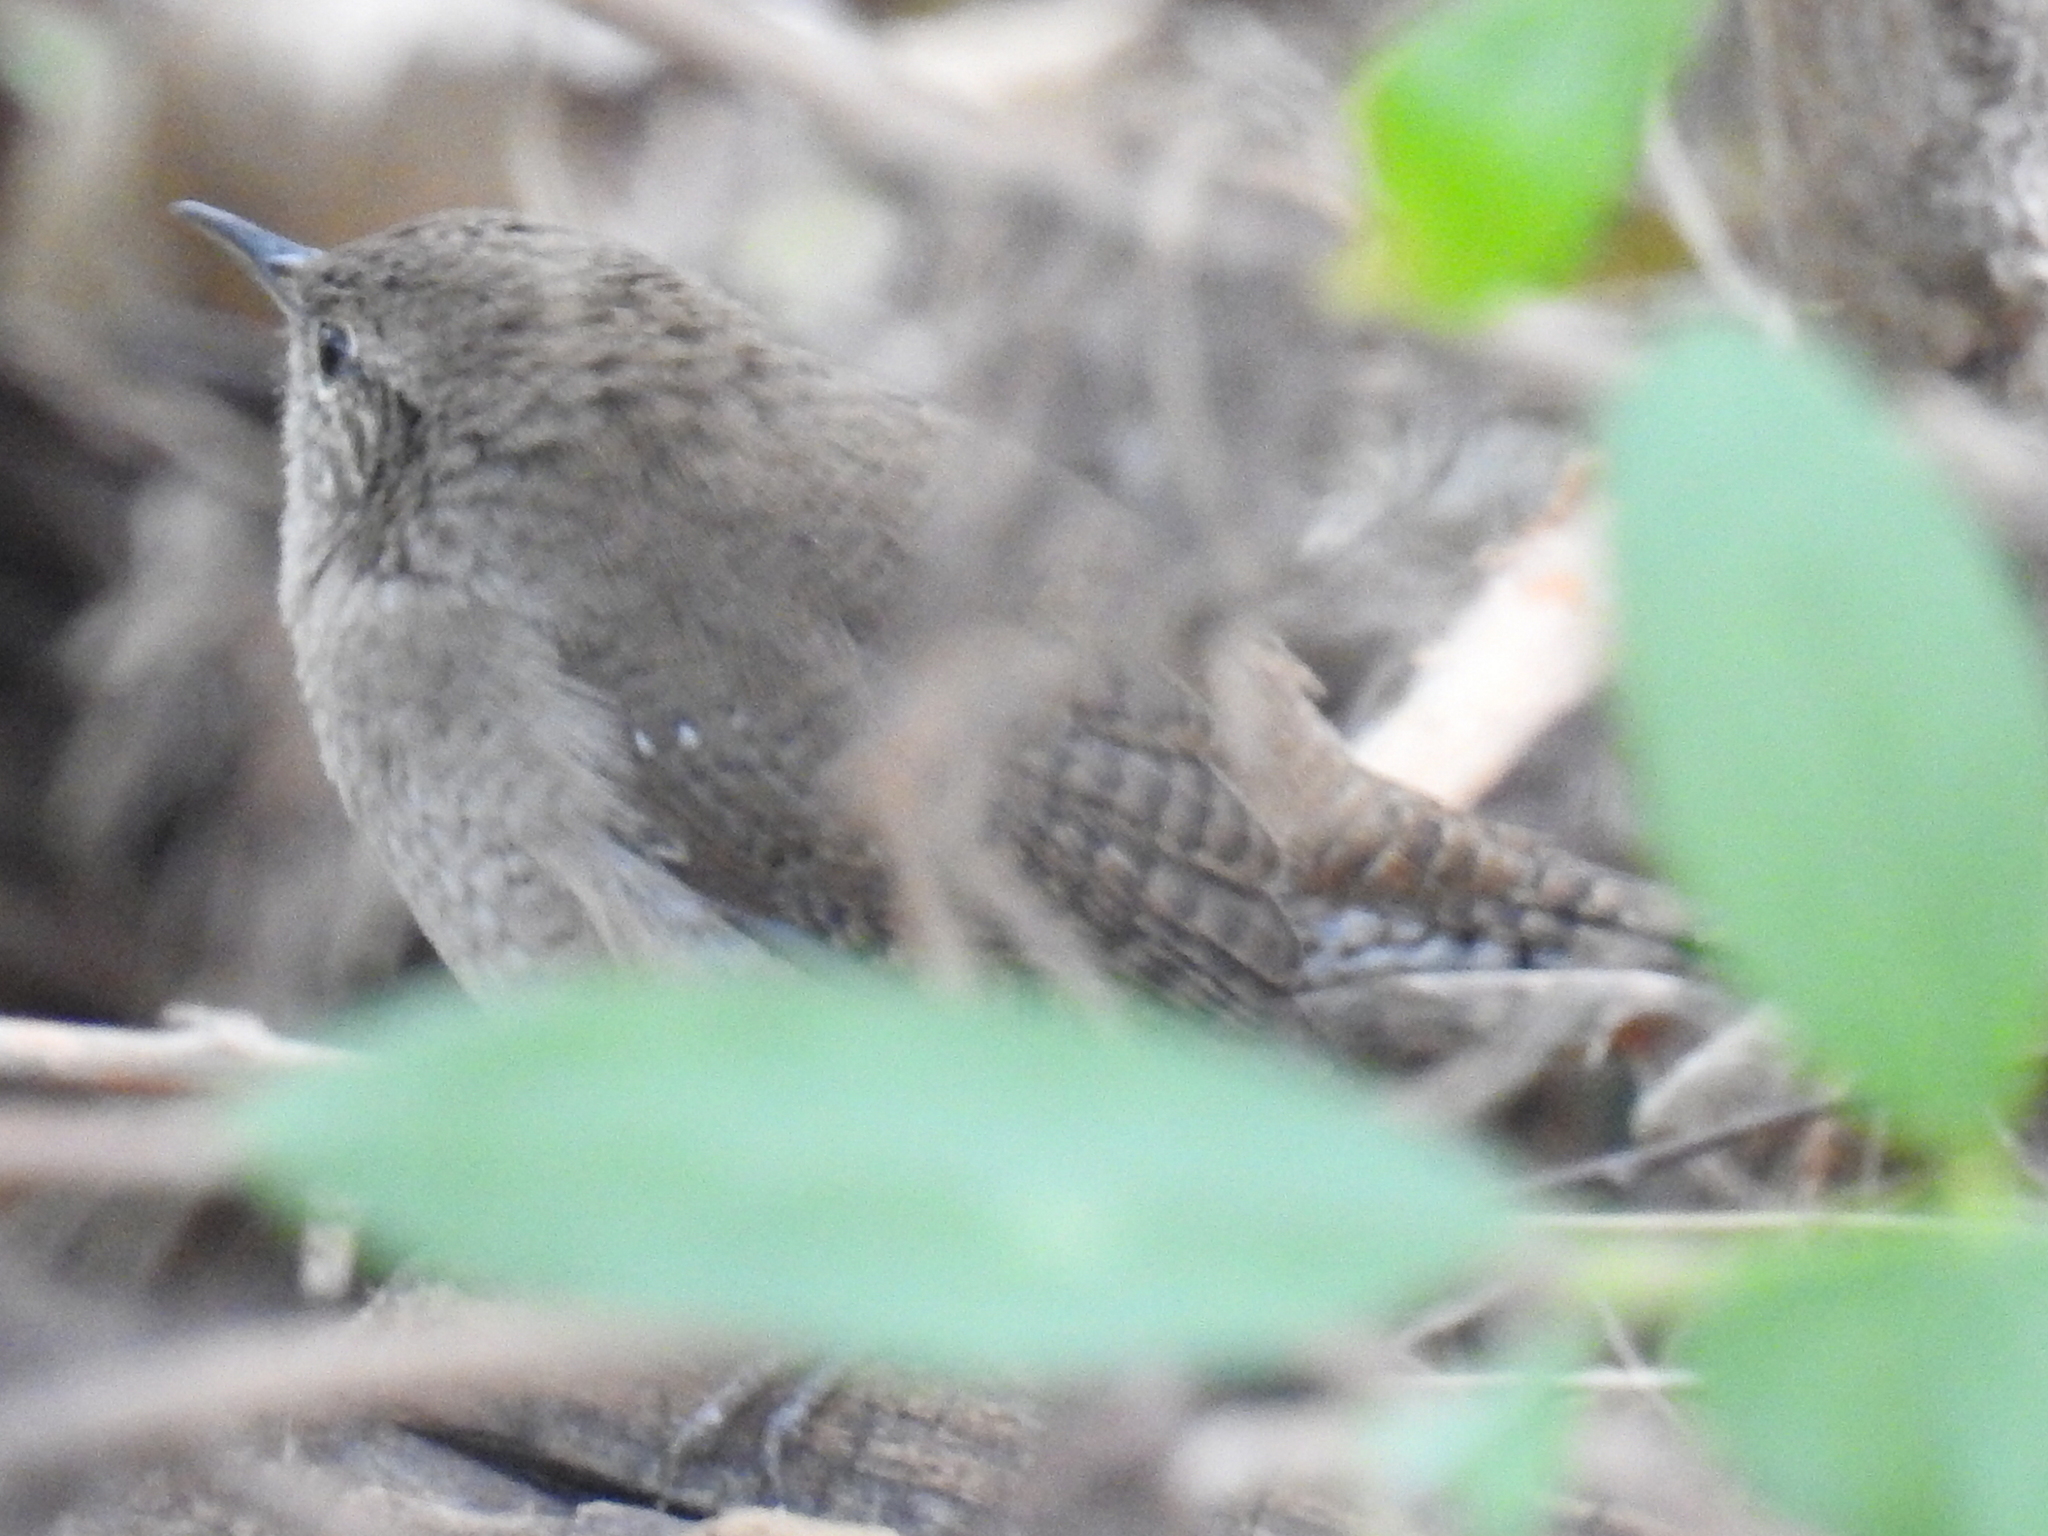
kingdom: Animalia
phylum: Chordata
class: Aves
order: Passeriformes
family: Troglodytidae
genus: Troglodytes
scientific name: Troglodytes aedon
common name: House wren
